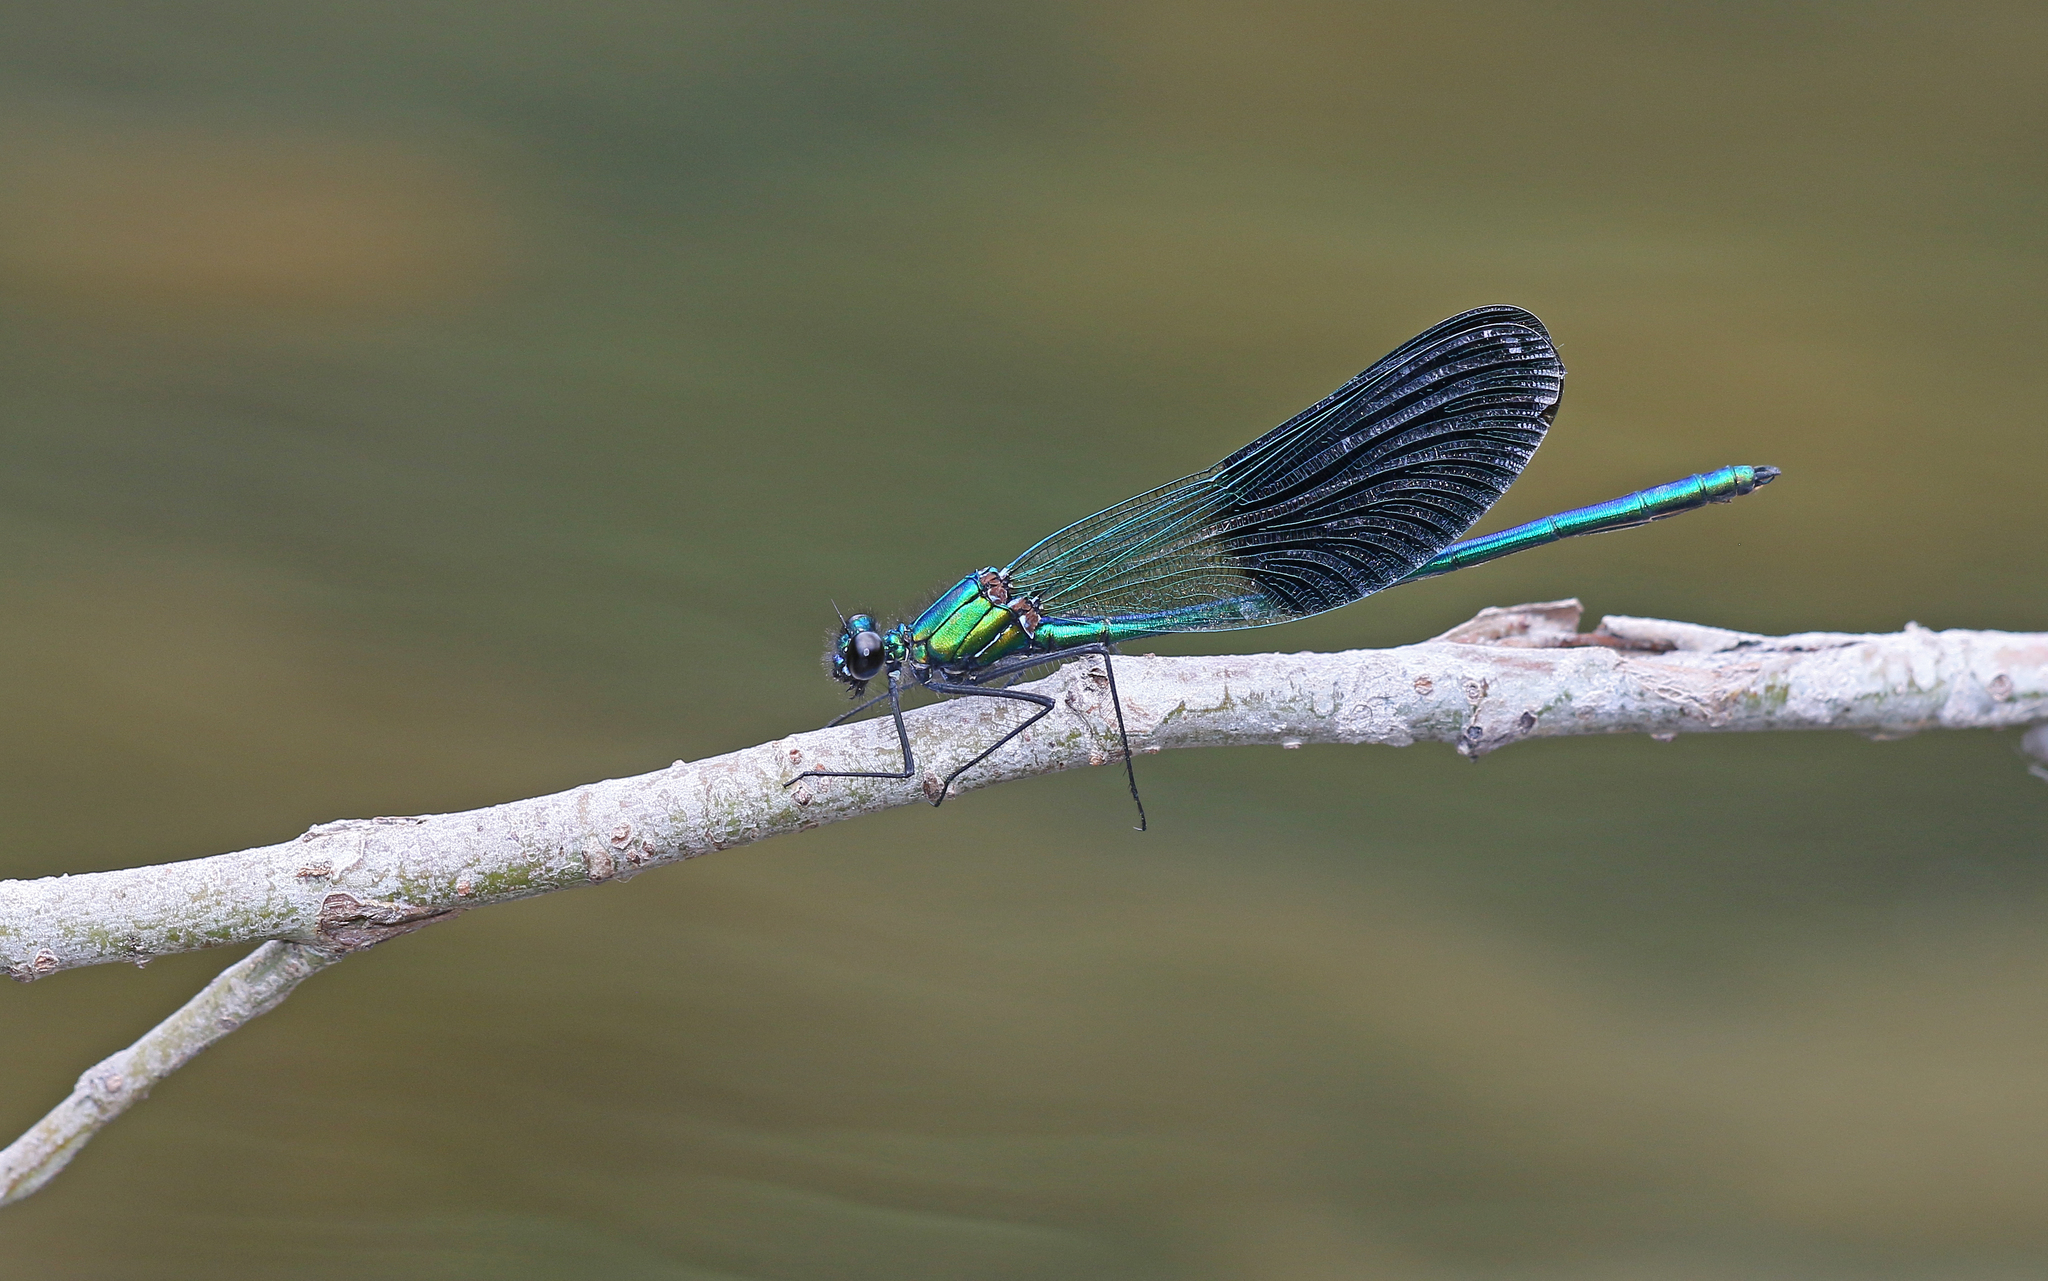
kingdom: Animalia
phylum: Arthropoda
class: Insecta
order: Odonata
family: Calopterygidae
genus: Calopteryx
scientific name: Calopteryx xanthostoma
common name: Western demoiselle
